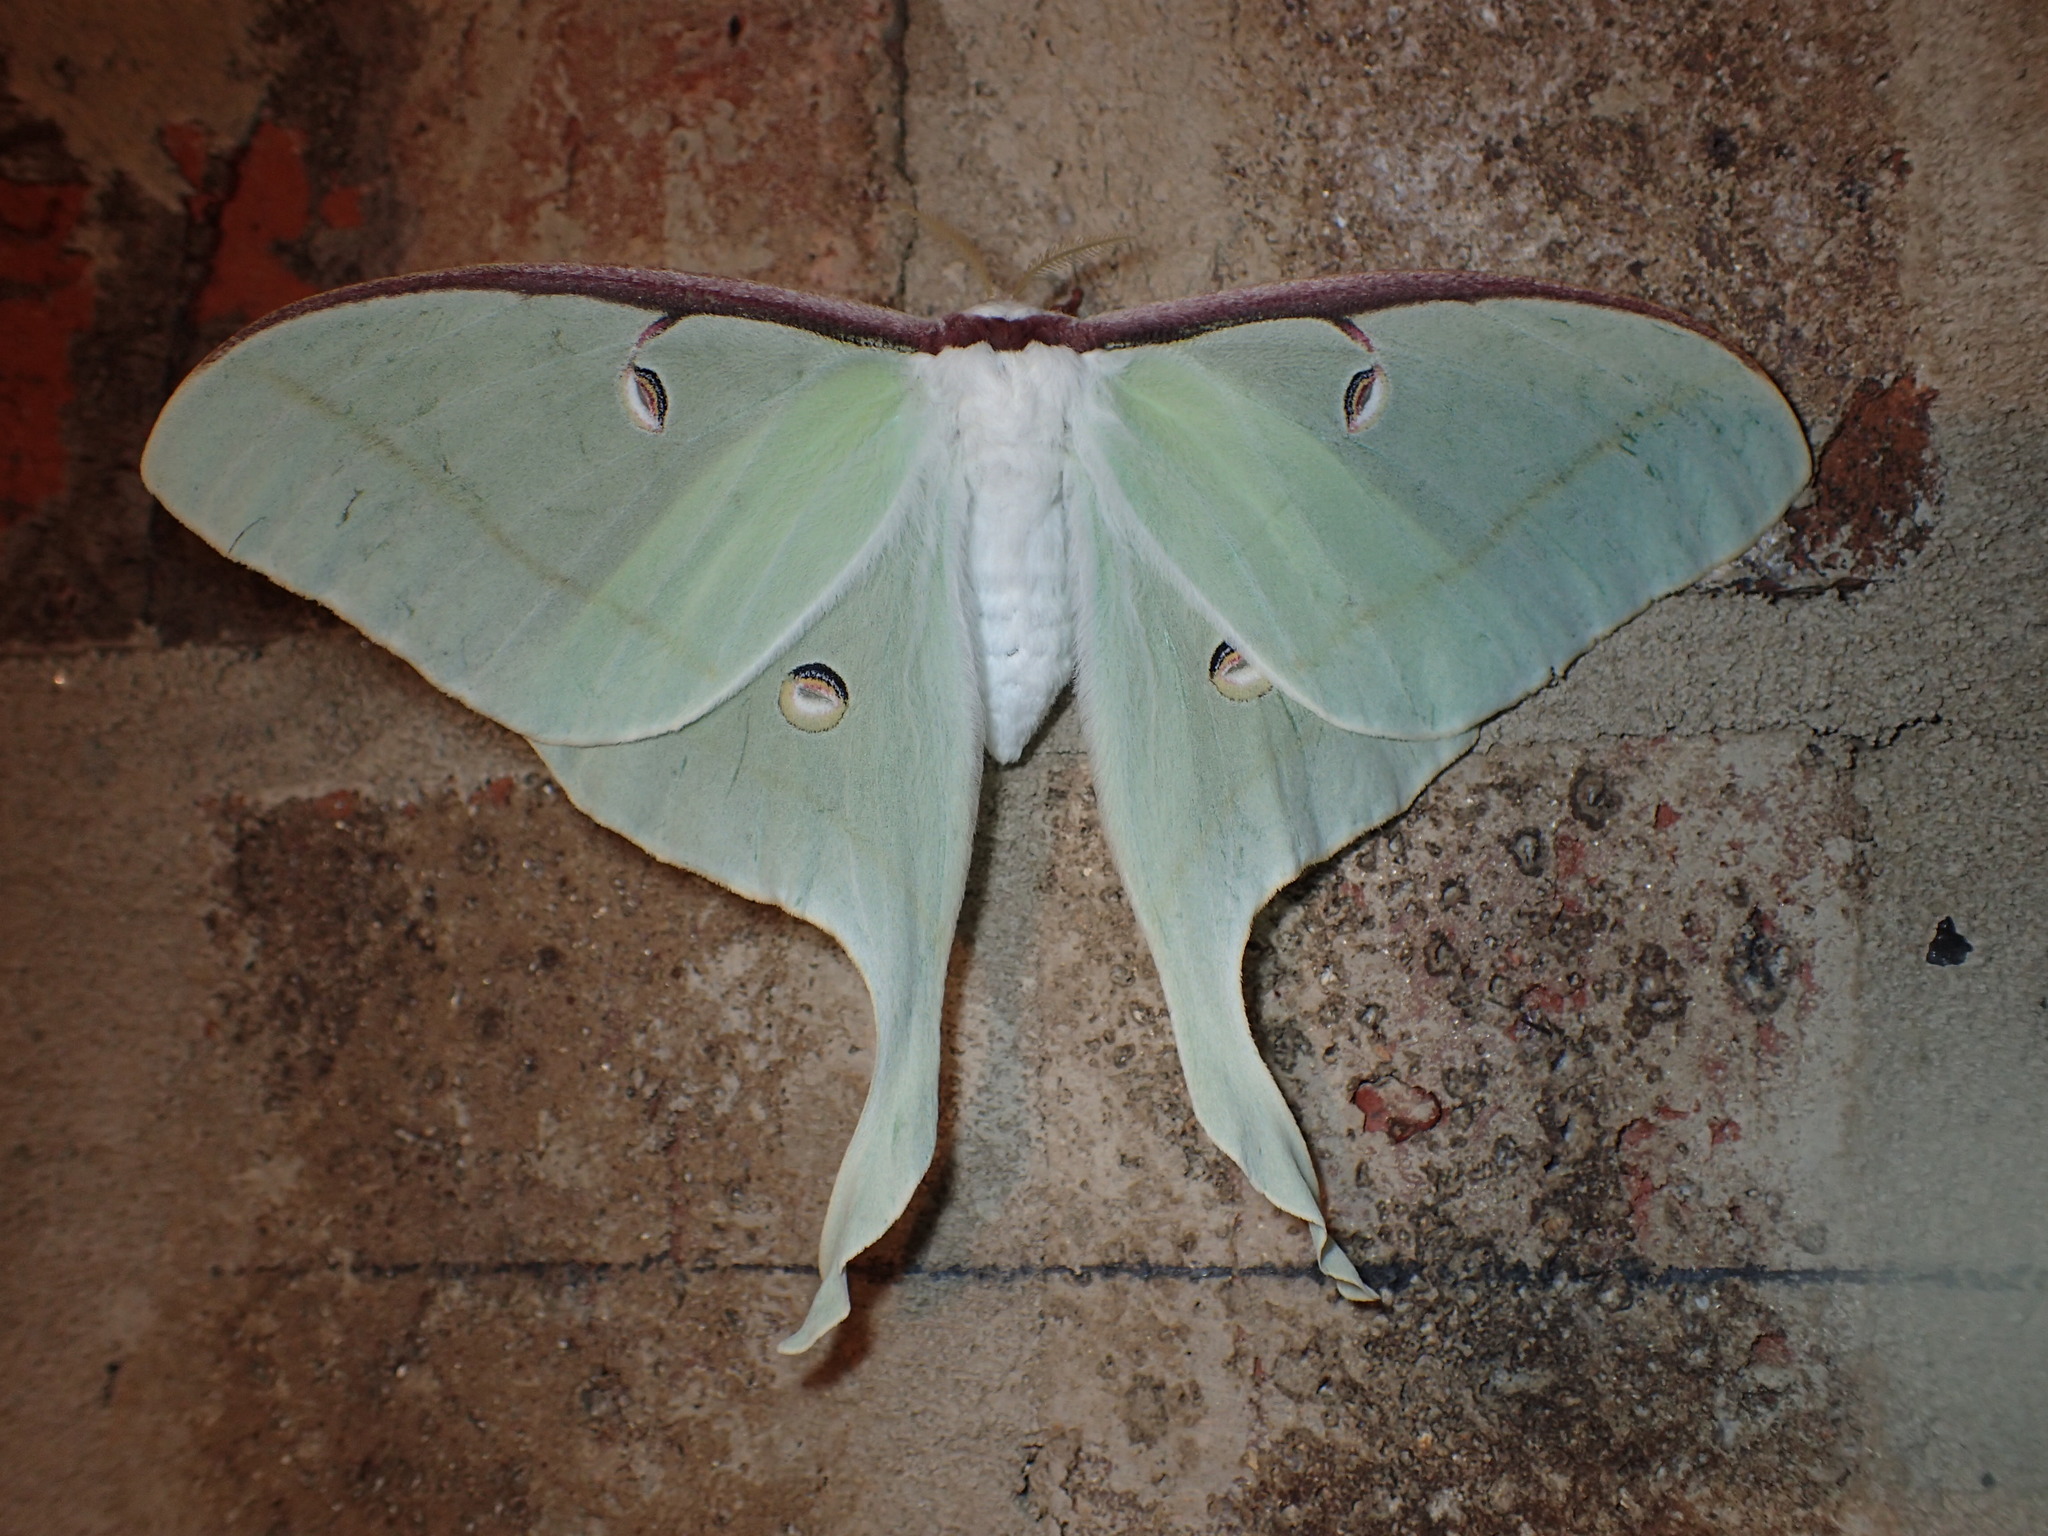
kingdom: Animalia
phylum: Arthropoda
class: Insecta
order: Lepidoptera
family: Saturniidae
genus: Actias
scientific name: Actias luna
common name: Luna moth
